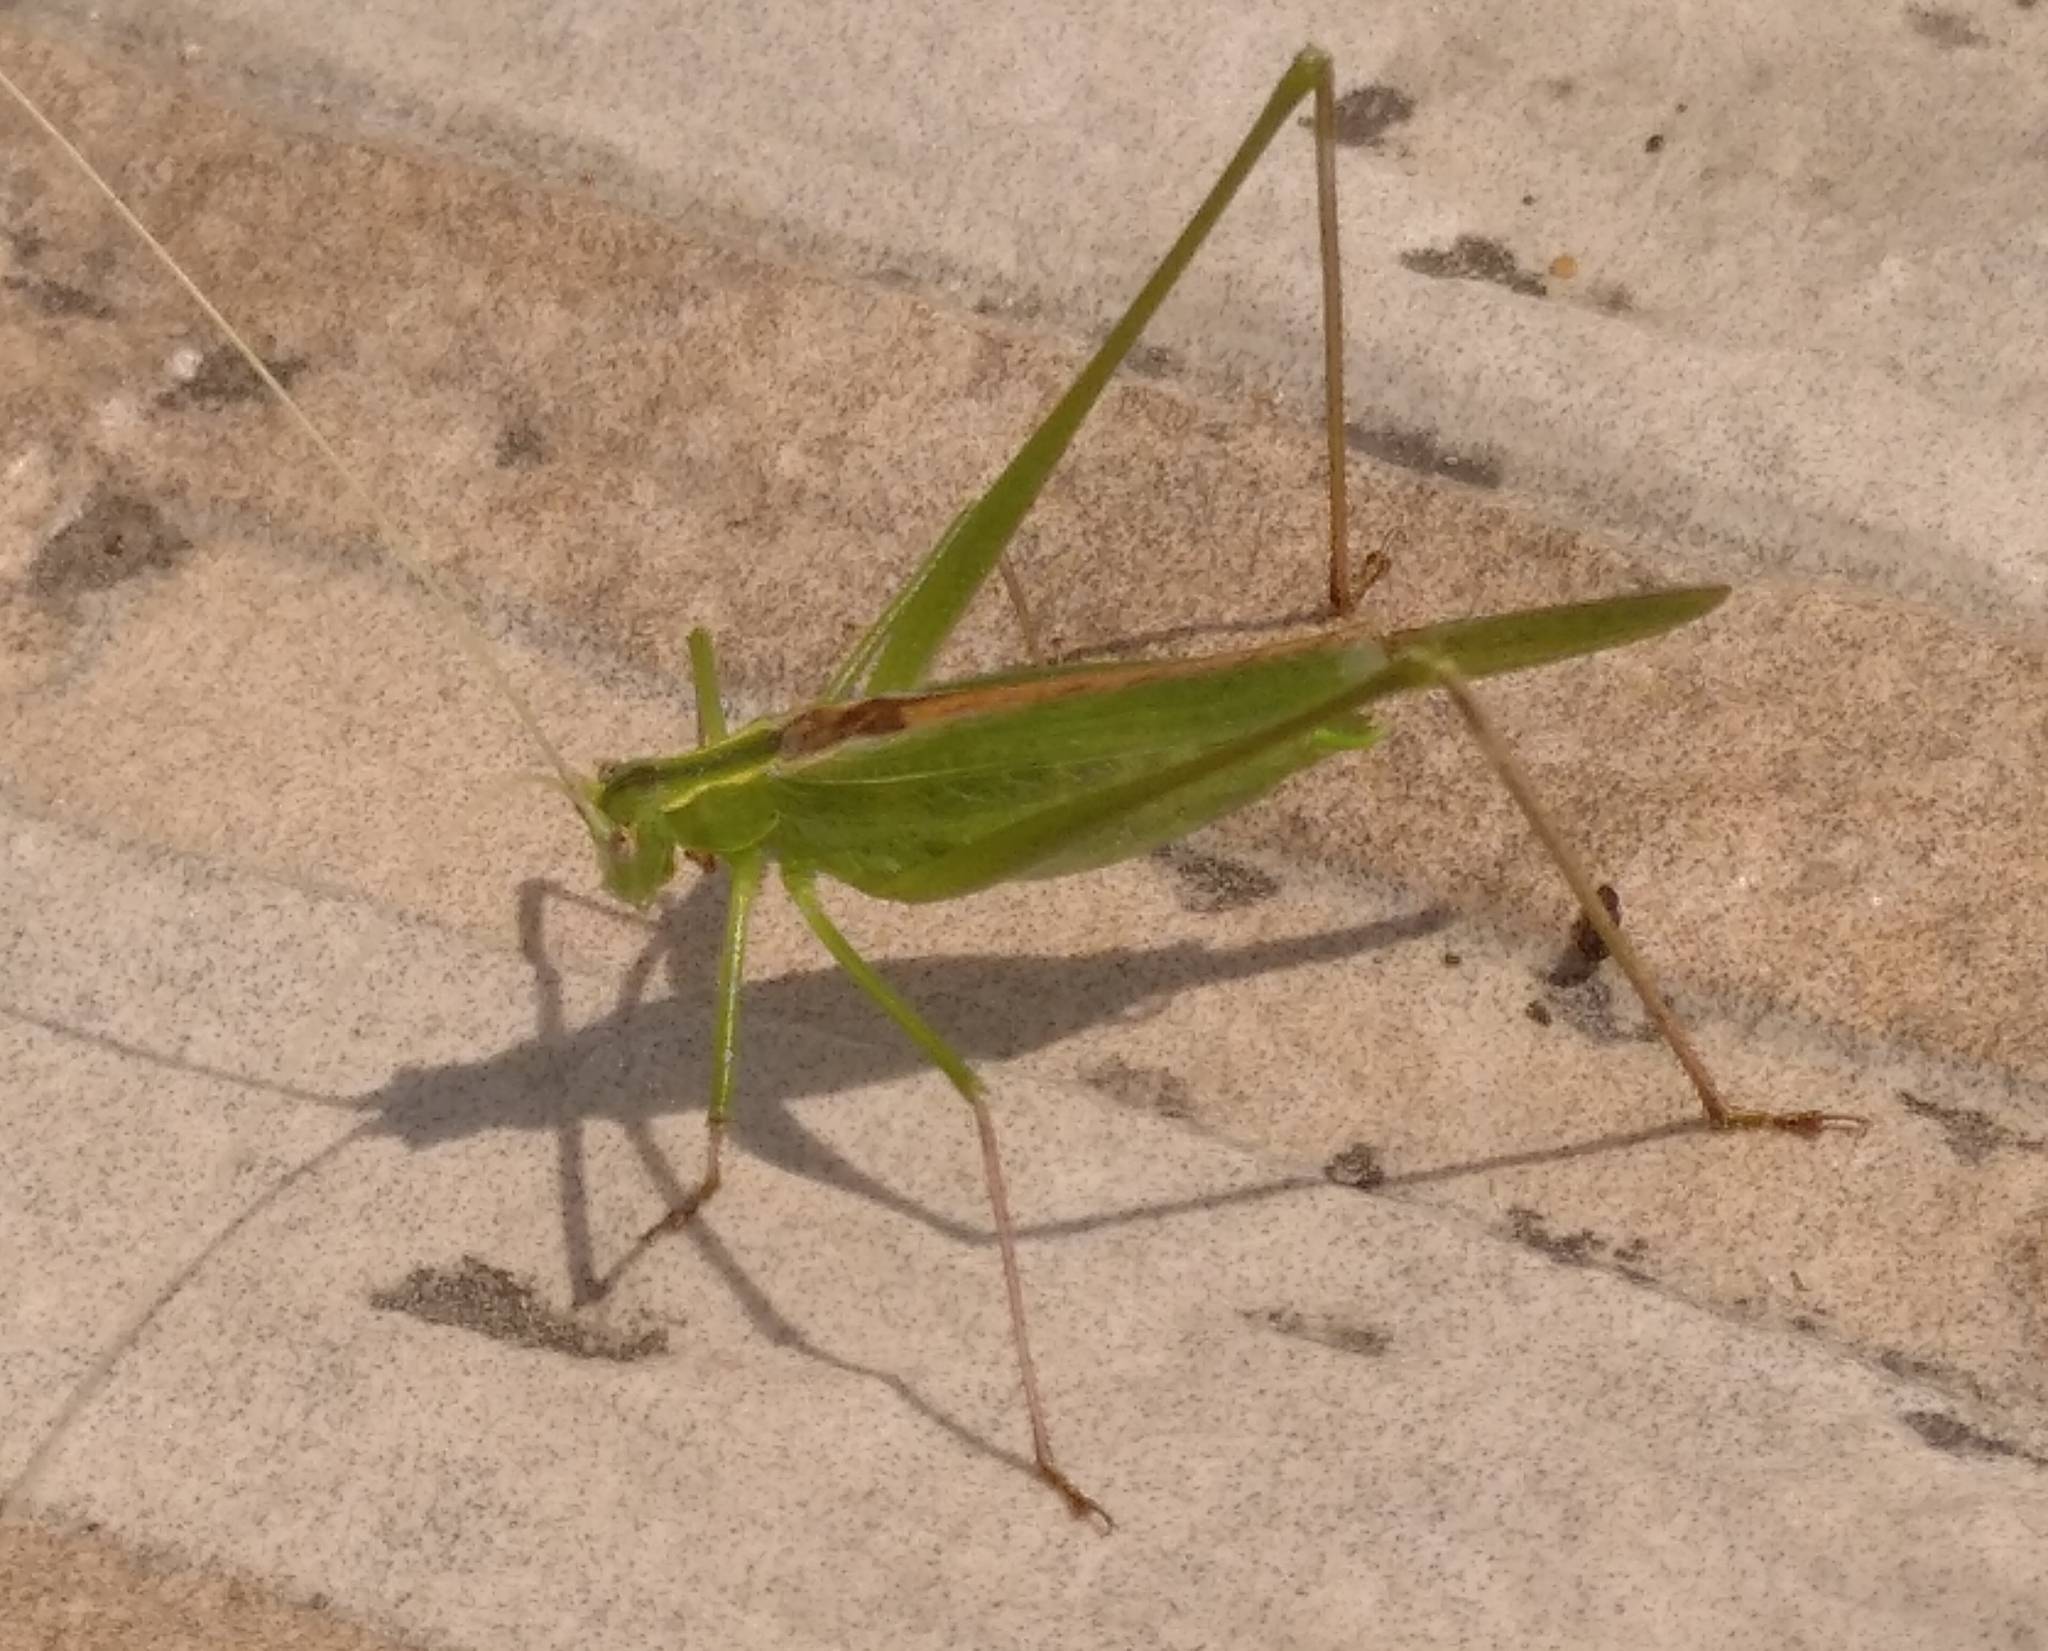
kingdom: Animalia
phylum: Arthropoda
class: Insecta
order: Orthoptera
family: Tettigoniidae
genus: Tylopsis
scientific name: Tylopsis lilifolia
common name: Lily bush-cricket
